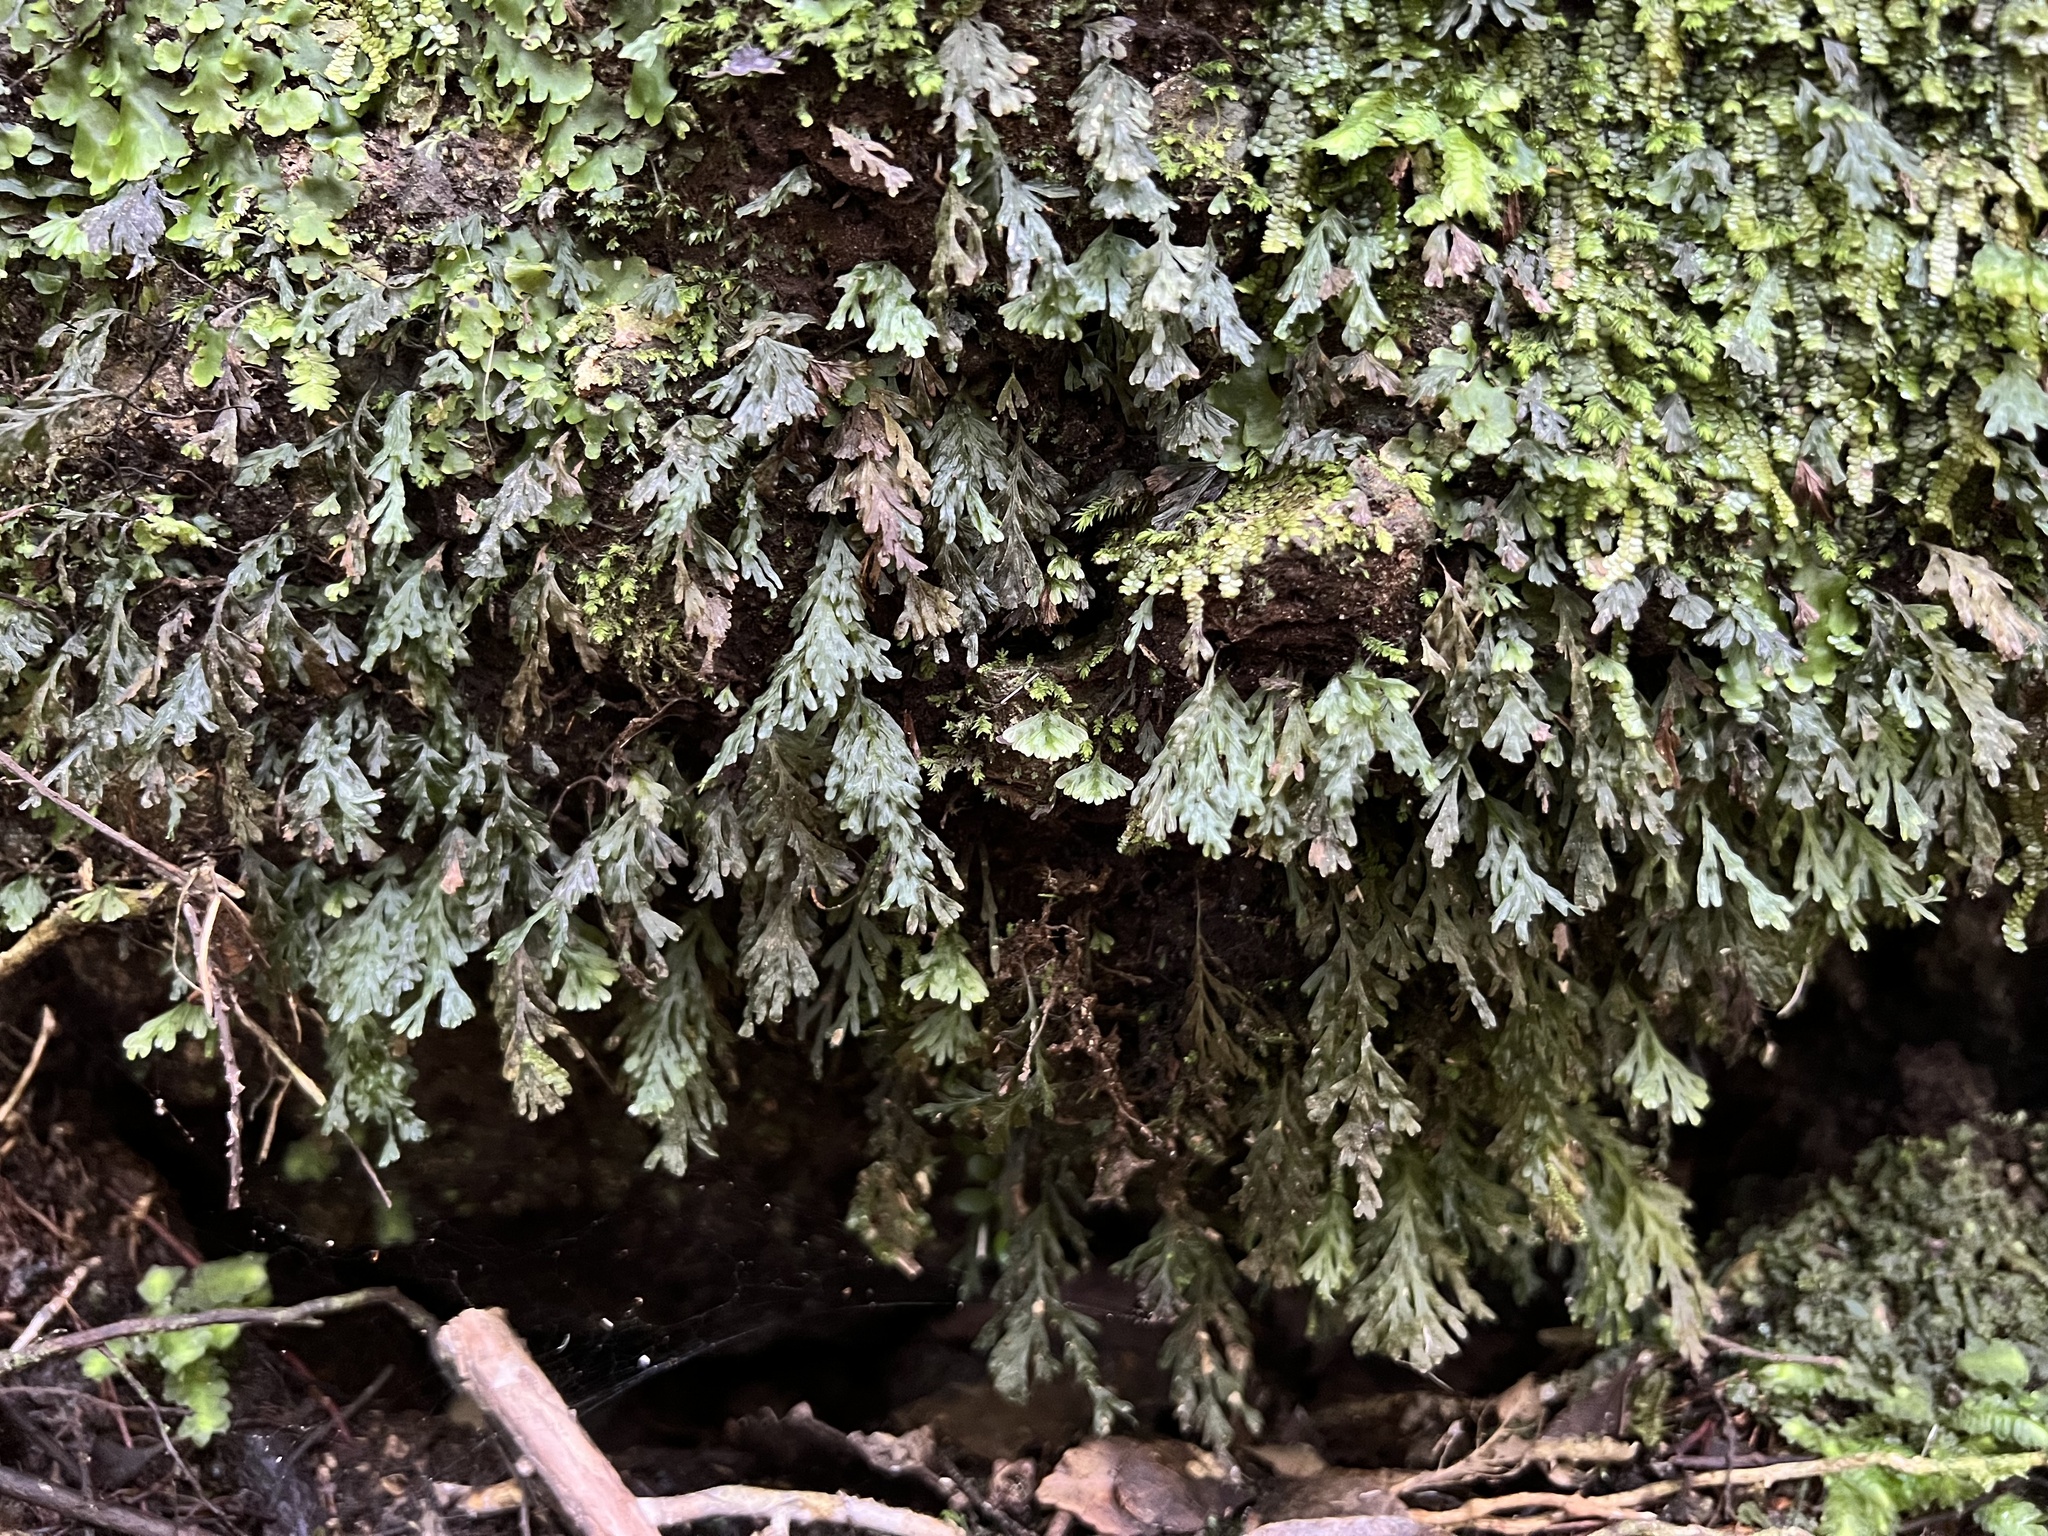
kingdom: Plantae
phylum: Tracheophyta
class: Polypodiopsida
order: Hymenophyllales
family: Hymenophyllaceae
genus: Polyphlebium
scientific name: Polyphlebium endlicherianum
